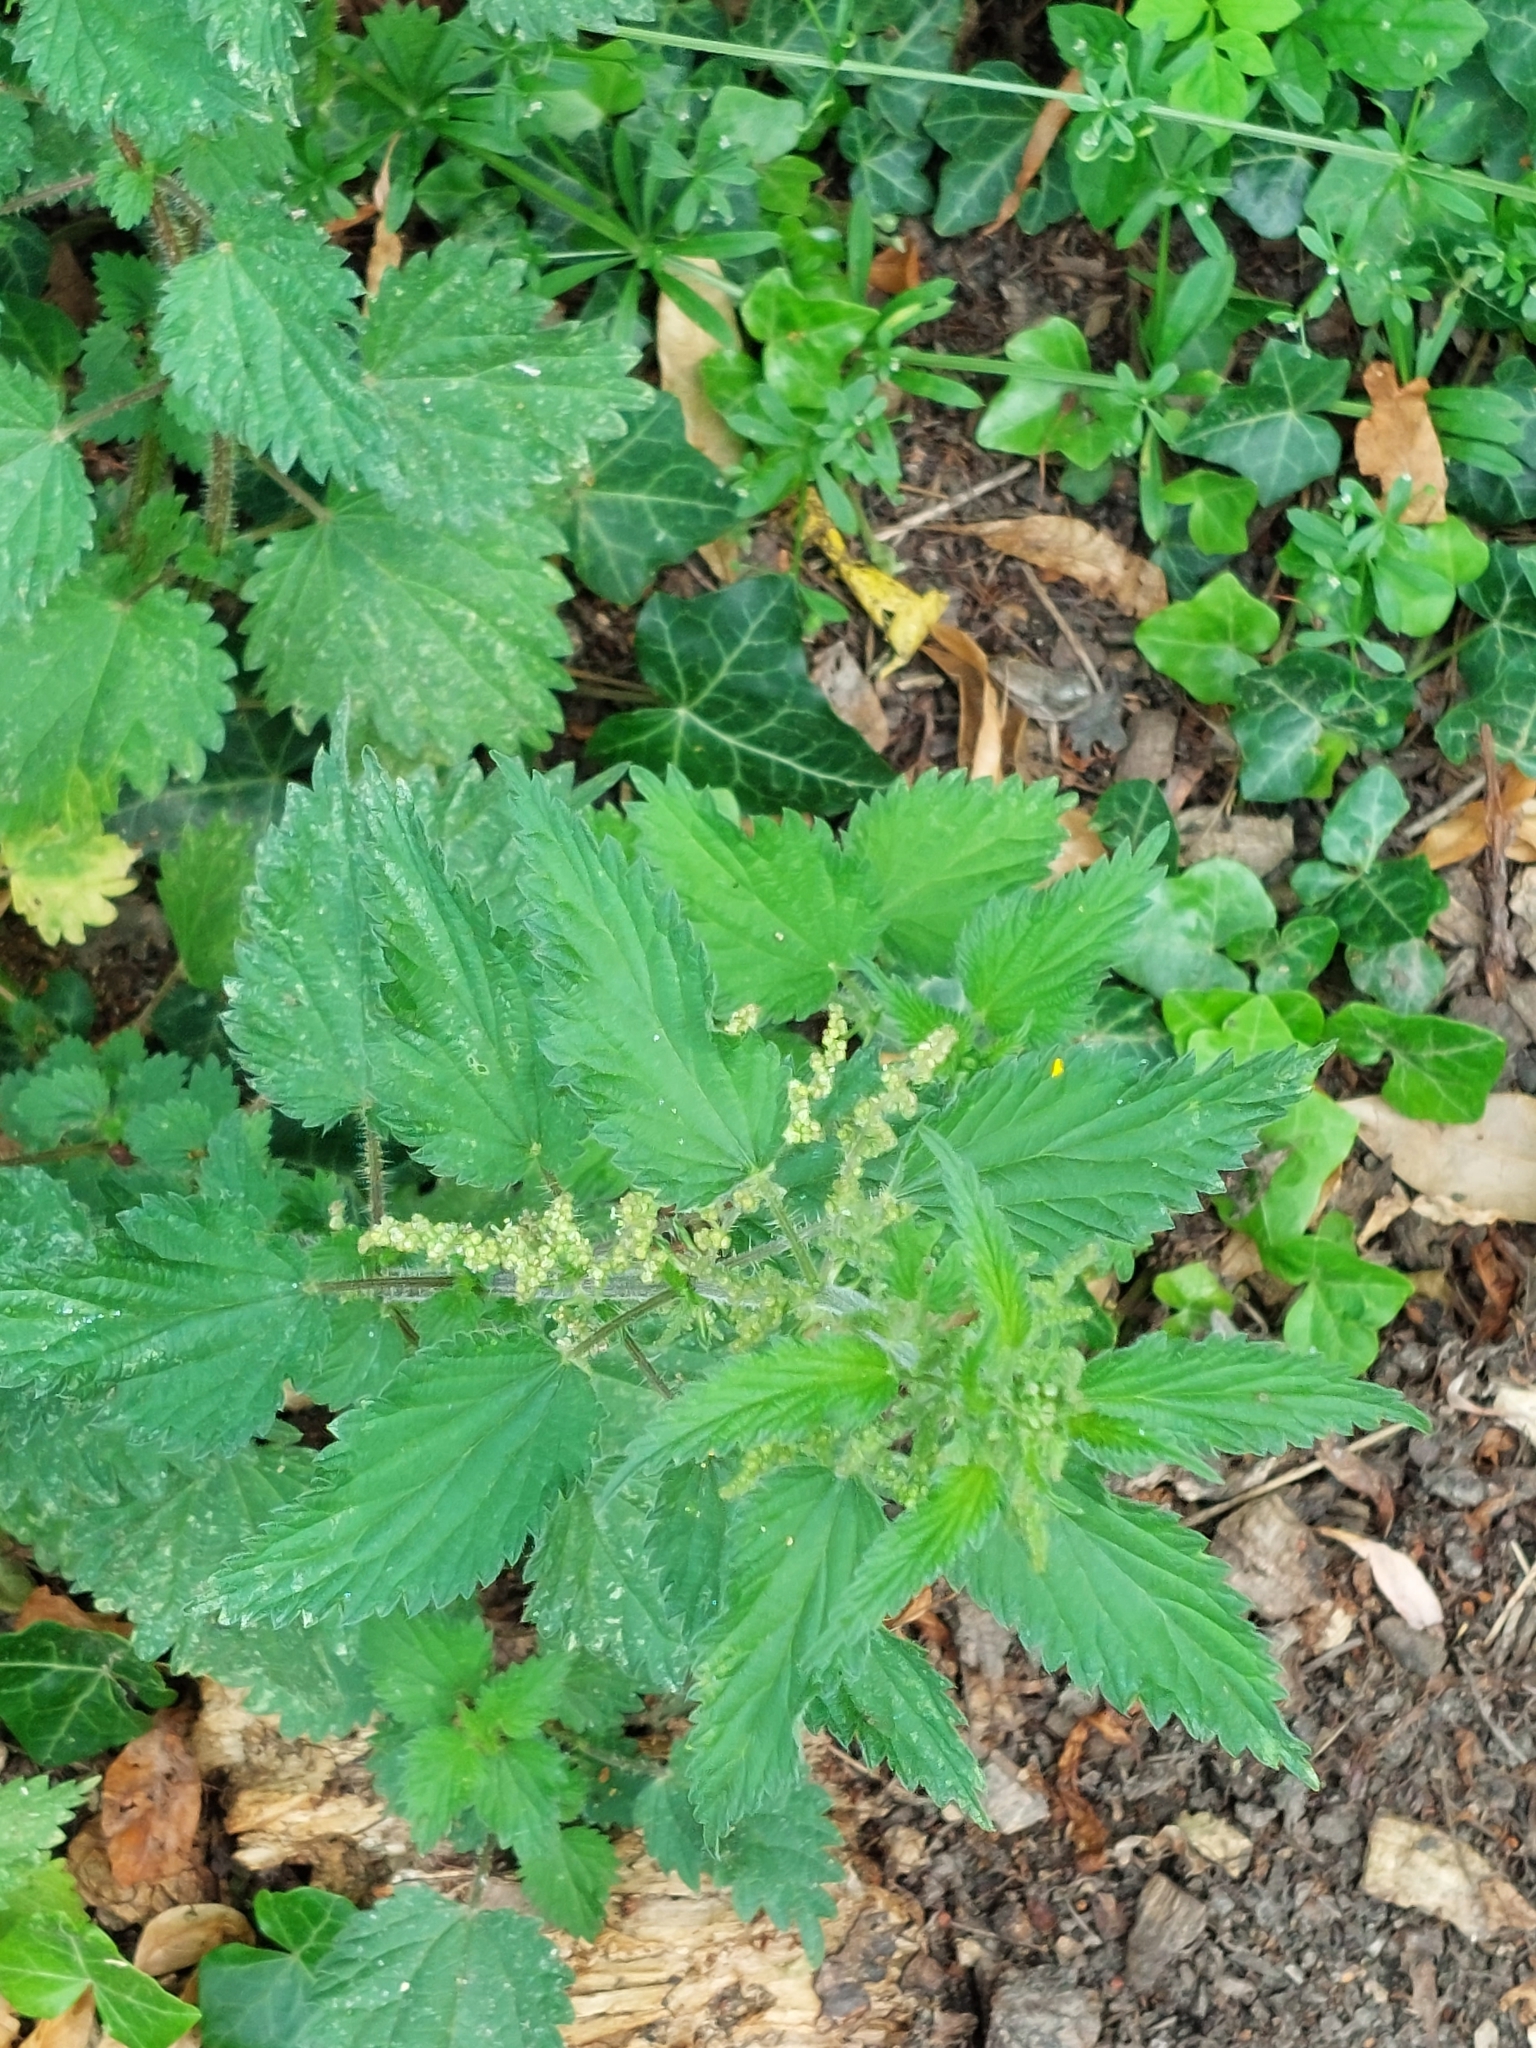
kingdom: Plantae
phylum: Tracheophyta
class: Magnoliopsida
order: Rosales
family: Urticaceae
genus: Urtica
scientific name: Urtica dioica
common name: Common nettle
